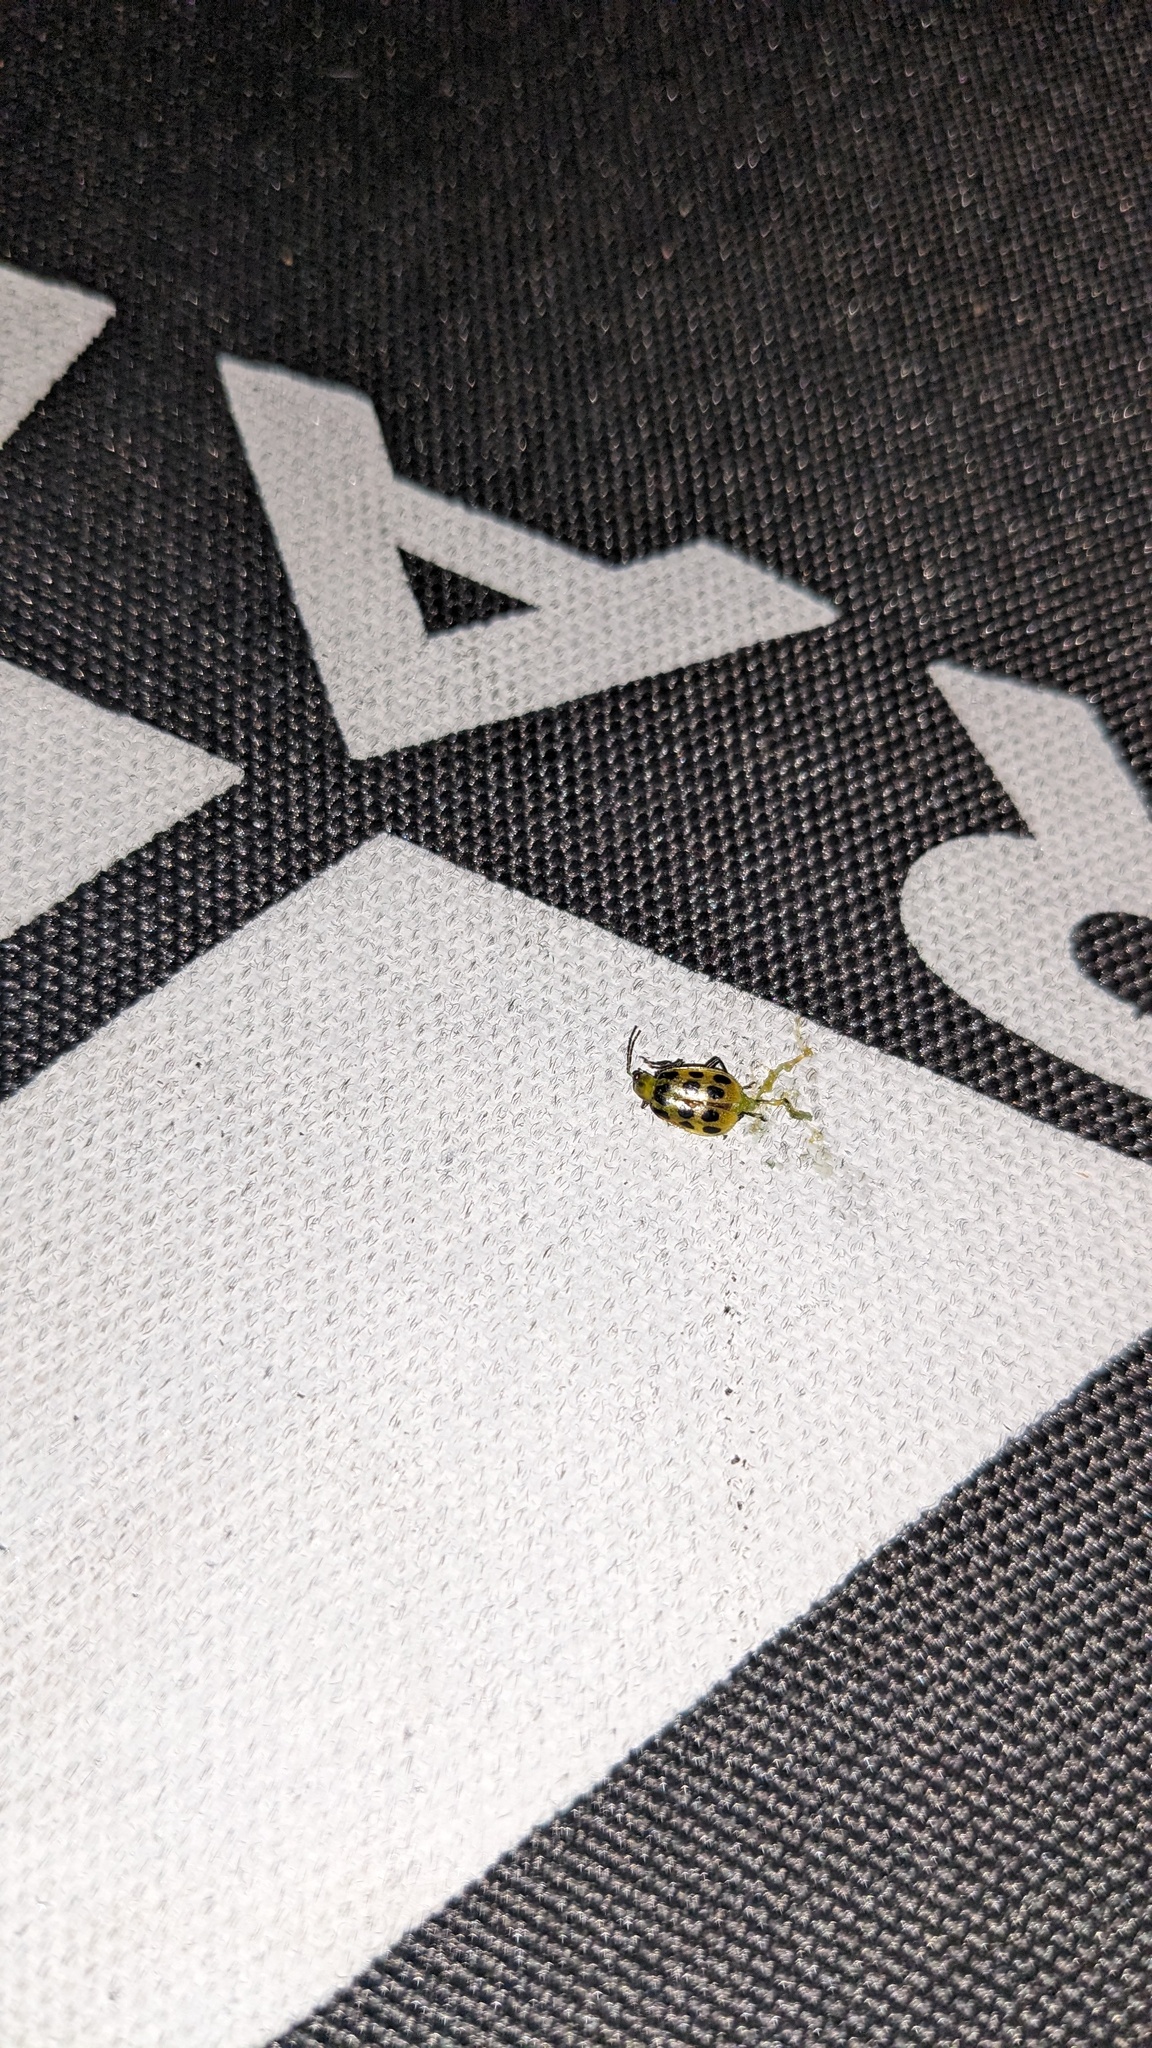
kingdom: Animalia
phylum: Arthropoda
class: Insecta
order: Coleoptera
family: Chrysomelidae
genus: Diabrotica
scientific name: Diabrotica undecimpunctata
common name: Spotted cucumber beetle
